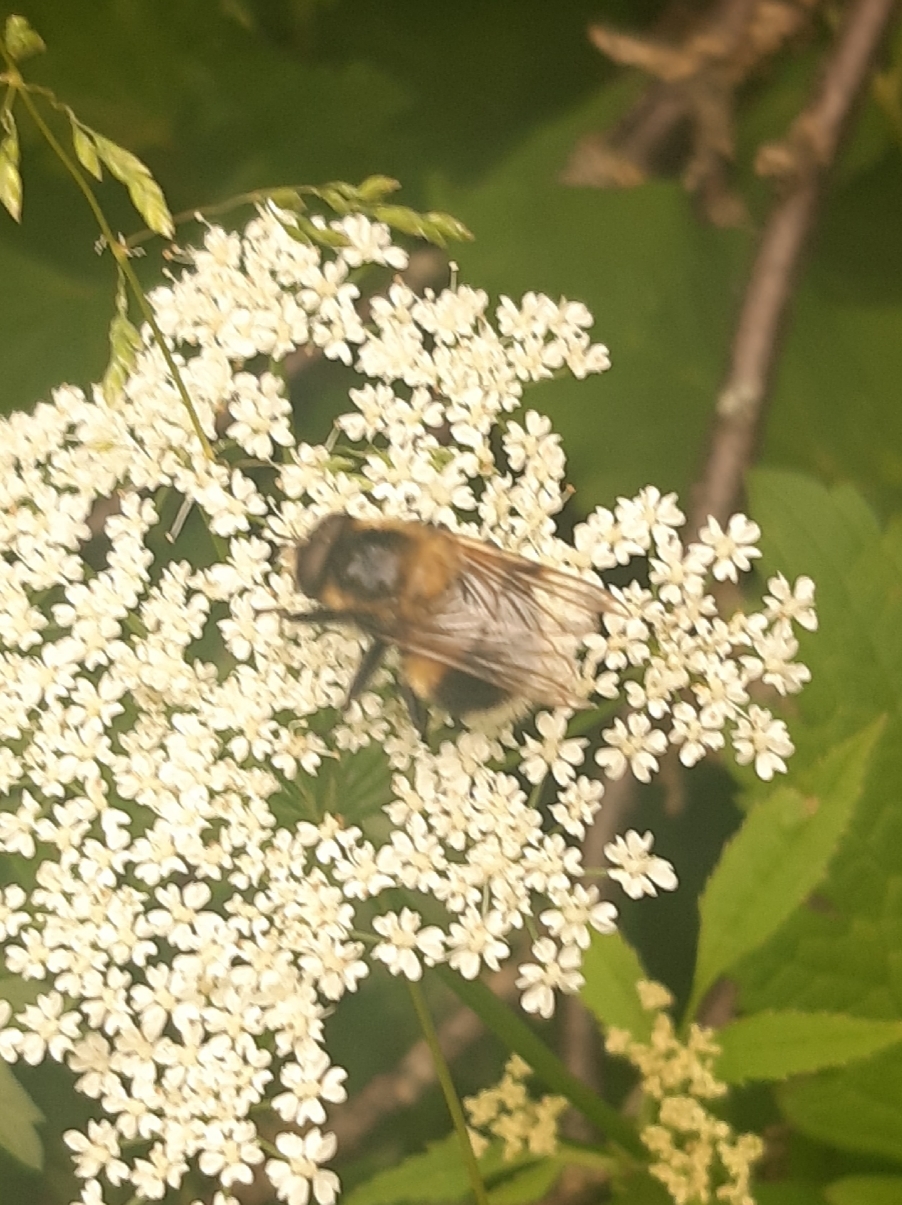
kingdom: Animalia
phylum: Arthropoda
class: Insecta
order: Diptera
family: Syrphidae
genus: Volucella
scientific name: Volucella bombylans
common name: Bumble bee hover fly
